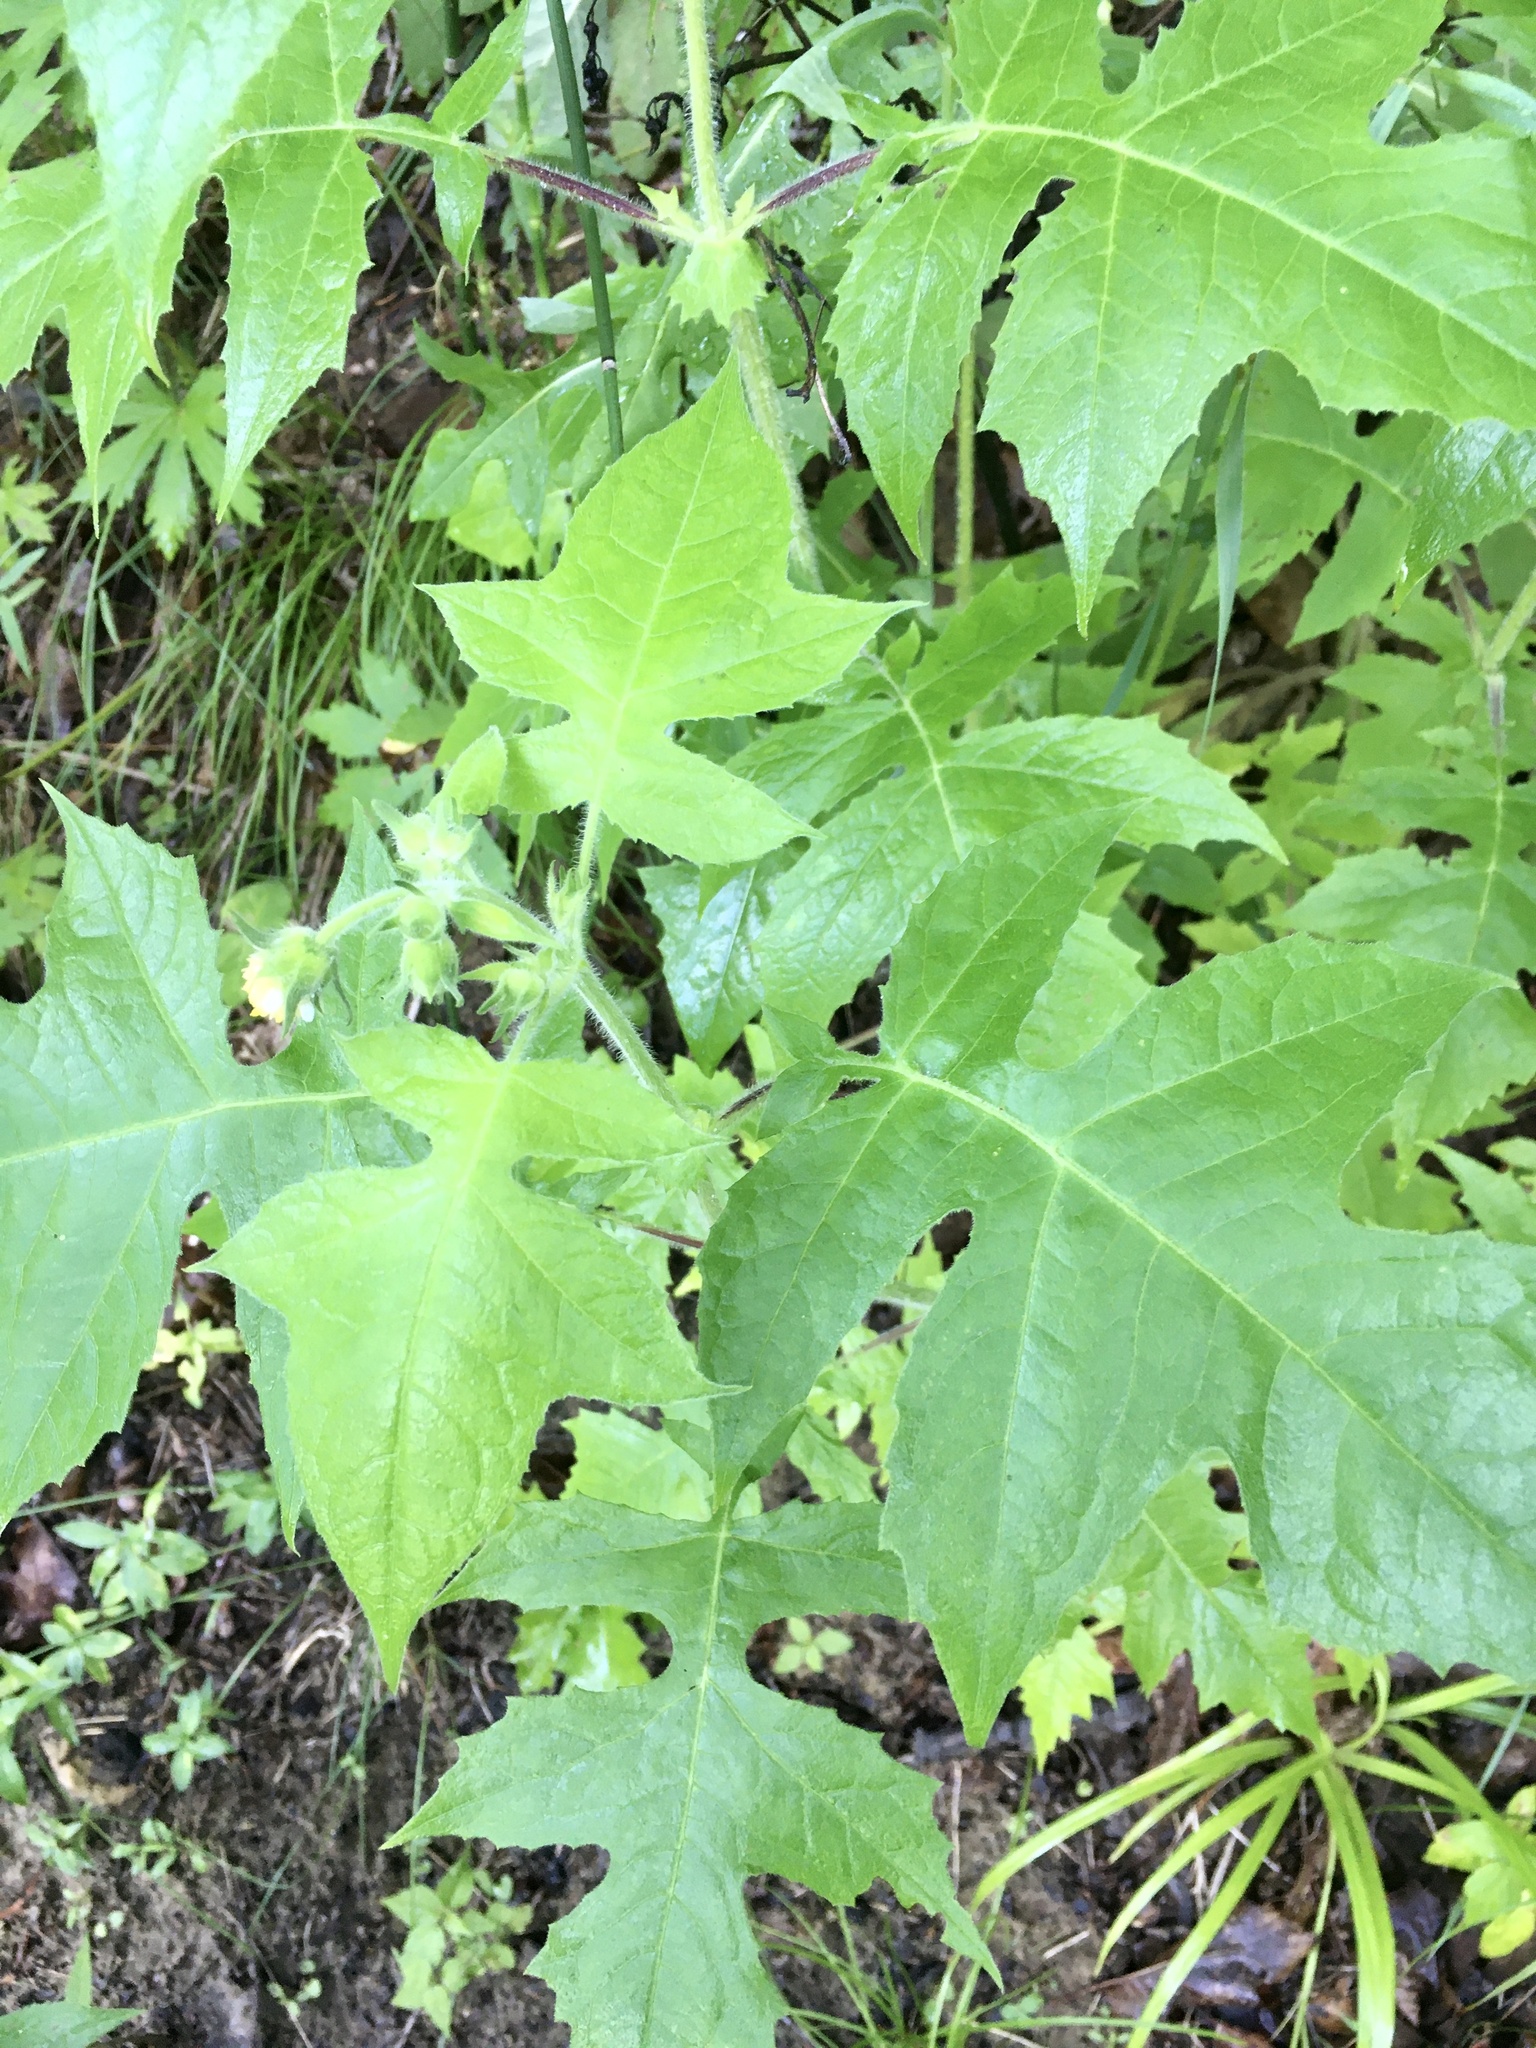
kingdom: Plantae
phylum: Tracheophyta
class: Magnoliopsida
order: Asterales
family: Asteraceae
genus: Polymnia
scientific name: Polymnia canadensis
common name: Pale-flowered leafcup
